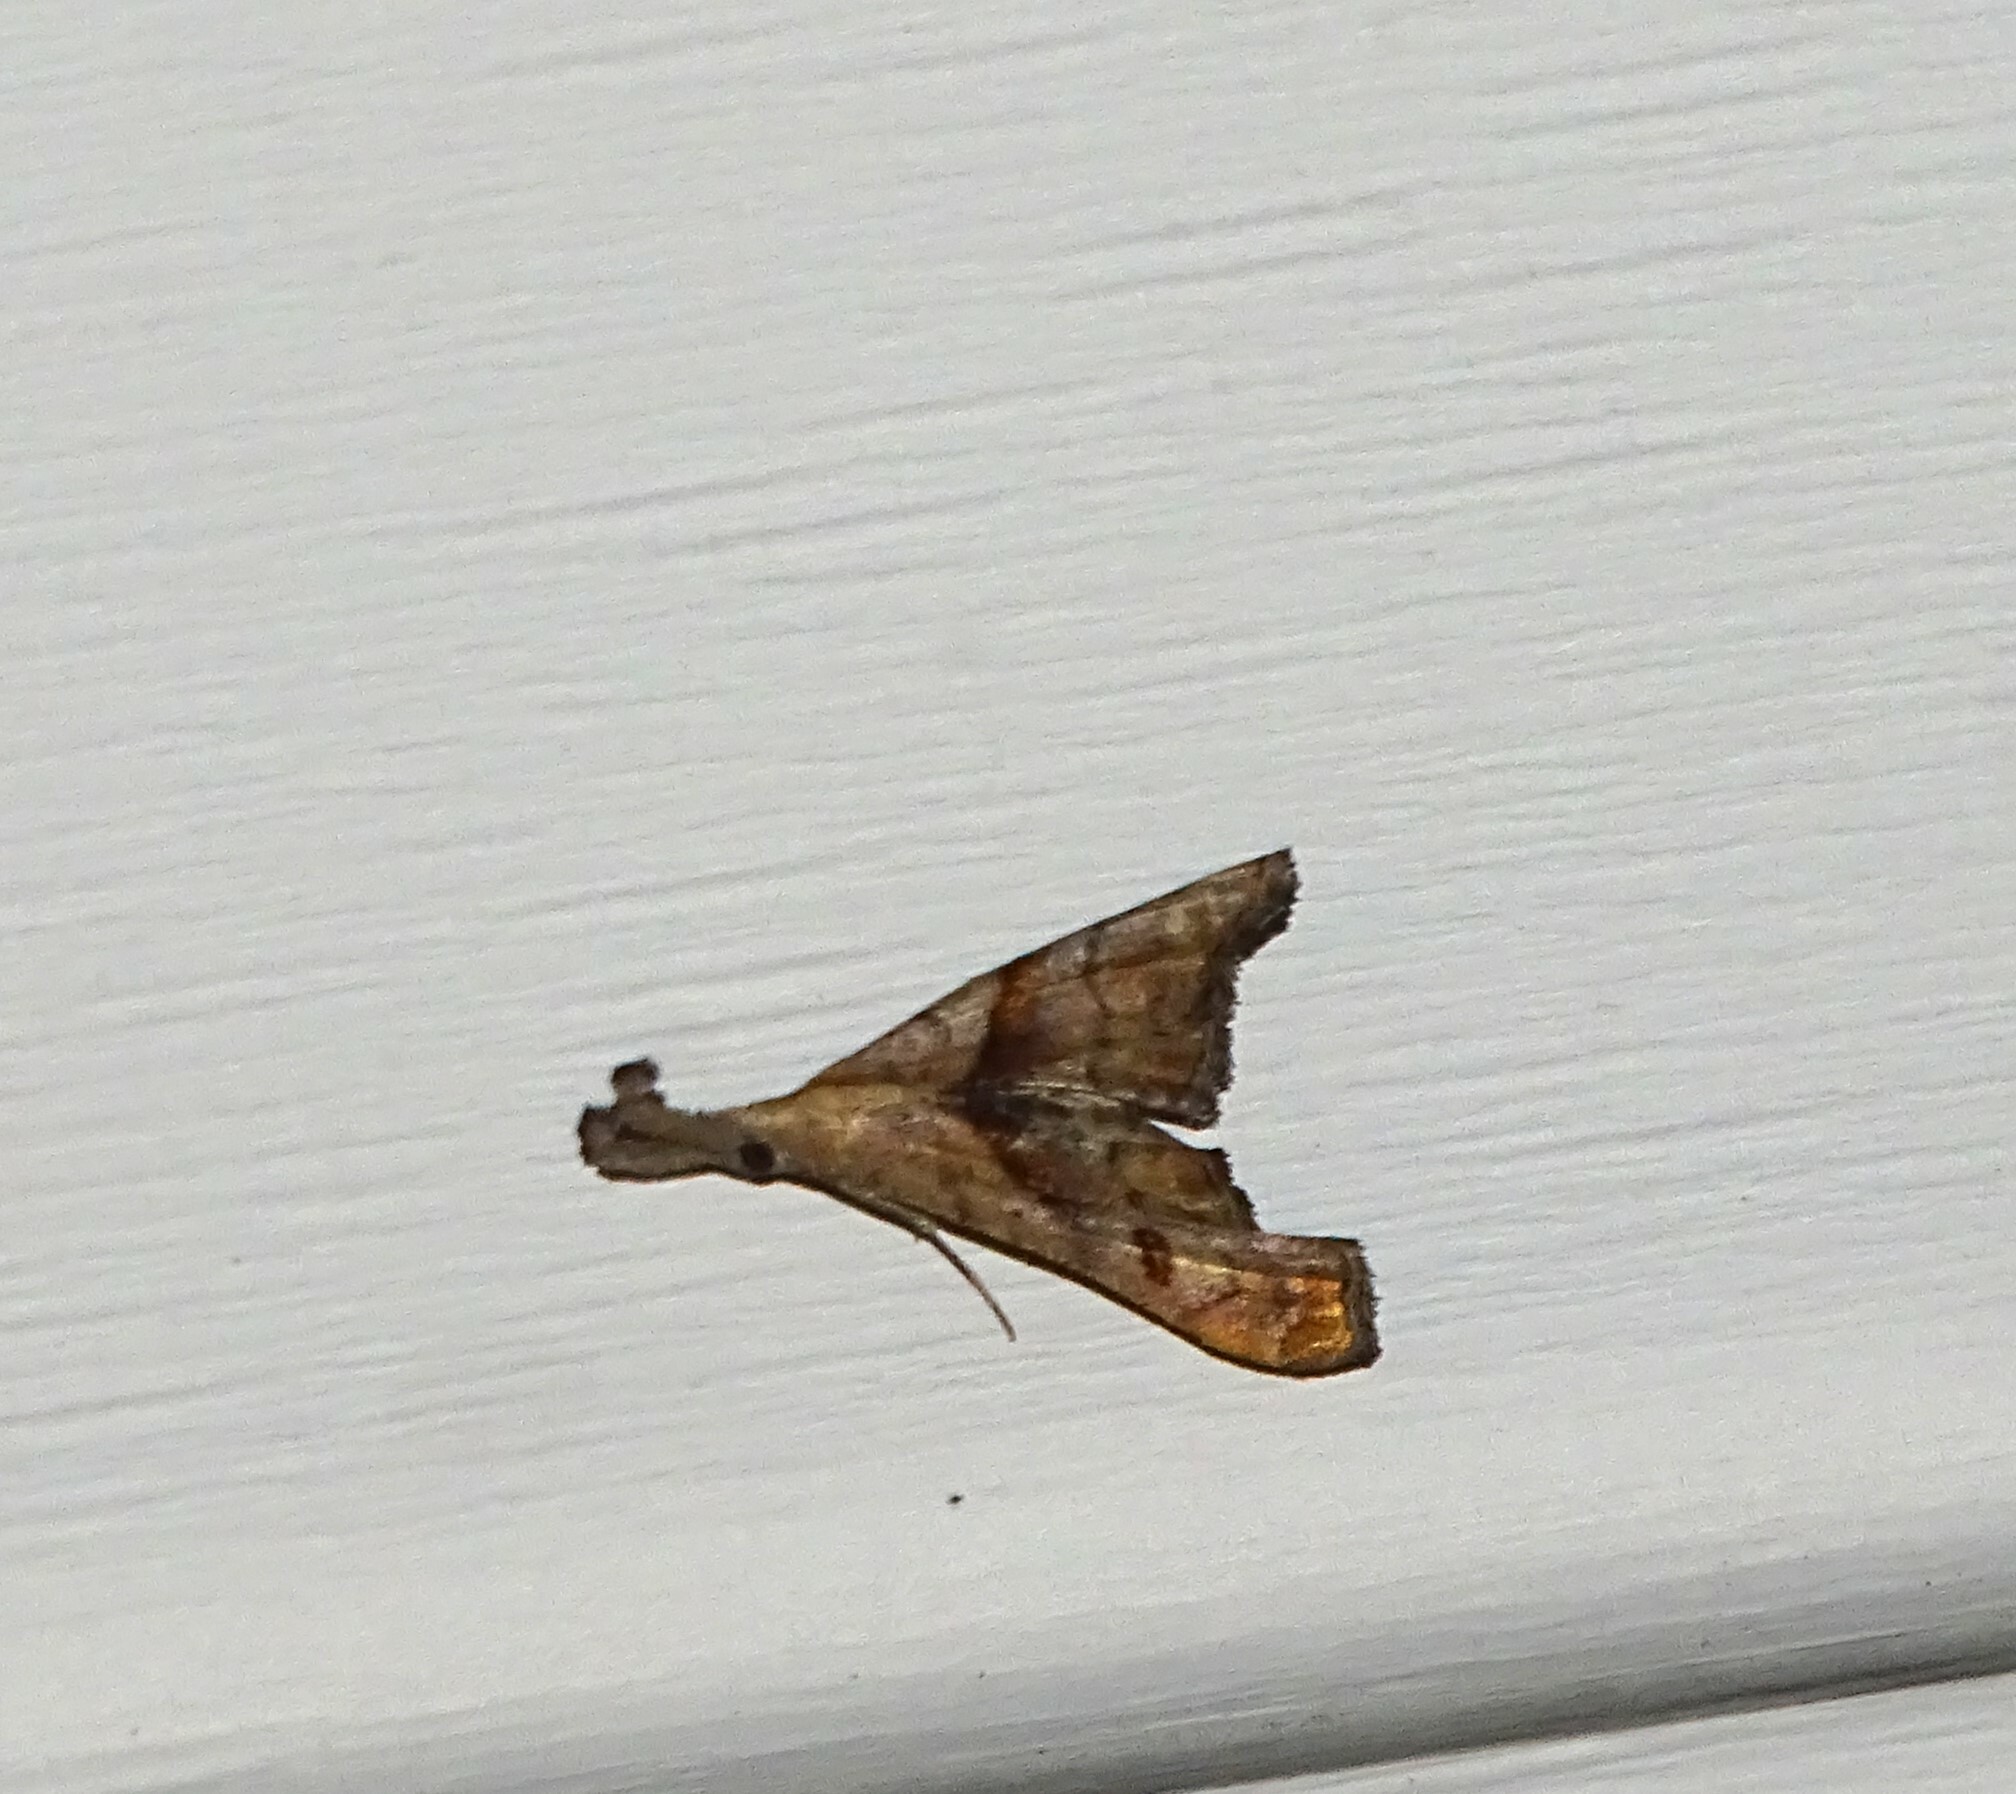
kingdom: Animalia
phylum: Arthropoda
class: Insecta
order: Lepidoptera
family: Erebidae
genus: Palthis
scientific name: Palthis angulalis
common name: Dark-spotted palthis moth
